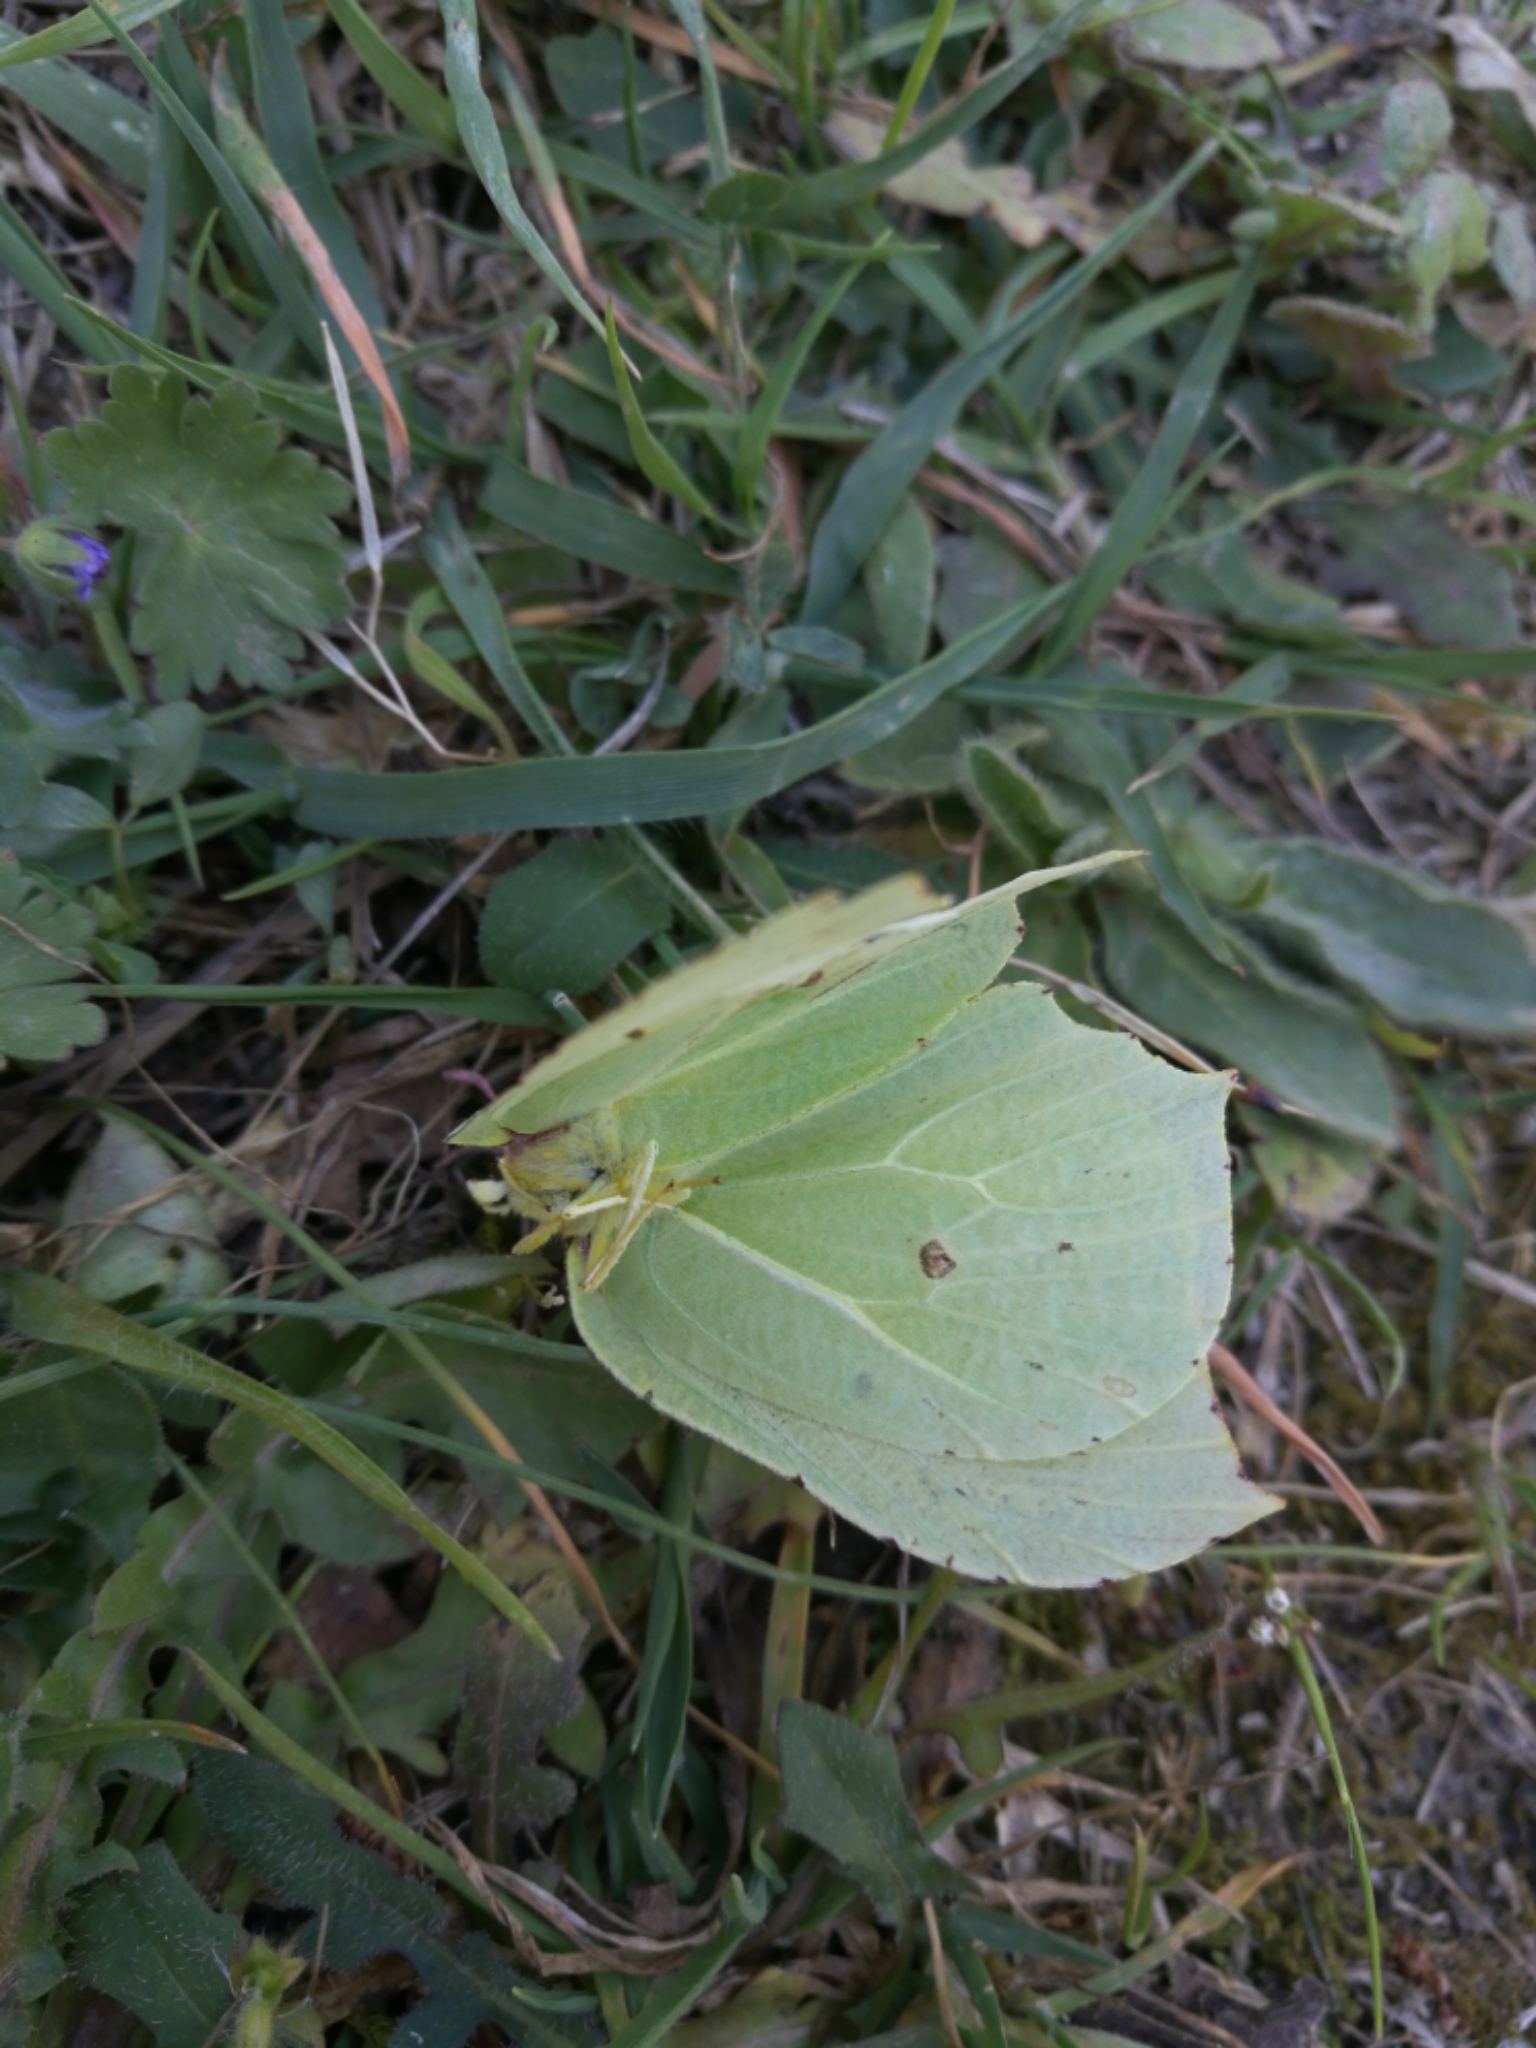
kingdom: Animalia
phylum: Arthropoda
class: Insecta
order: Lepidoptera
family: Pieridae
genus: Gonepteryx
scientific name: Gonepteryx rhamni
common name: Brimstone
